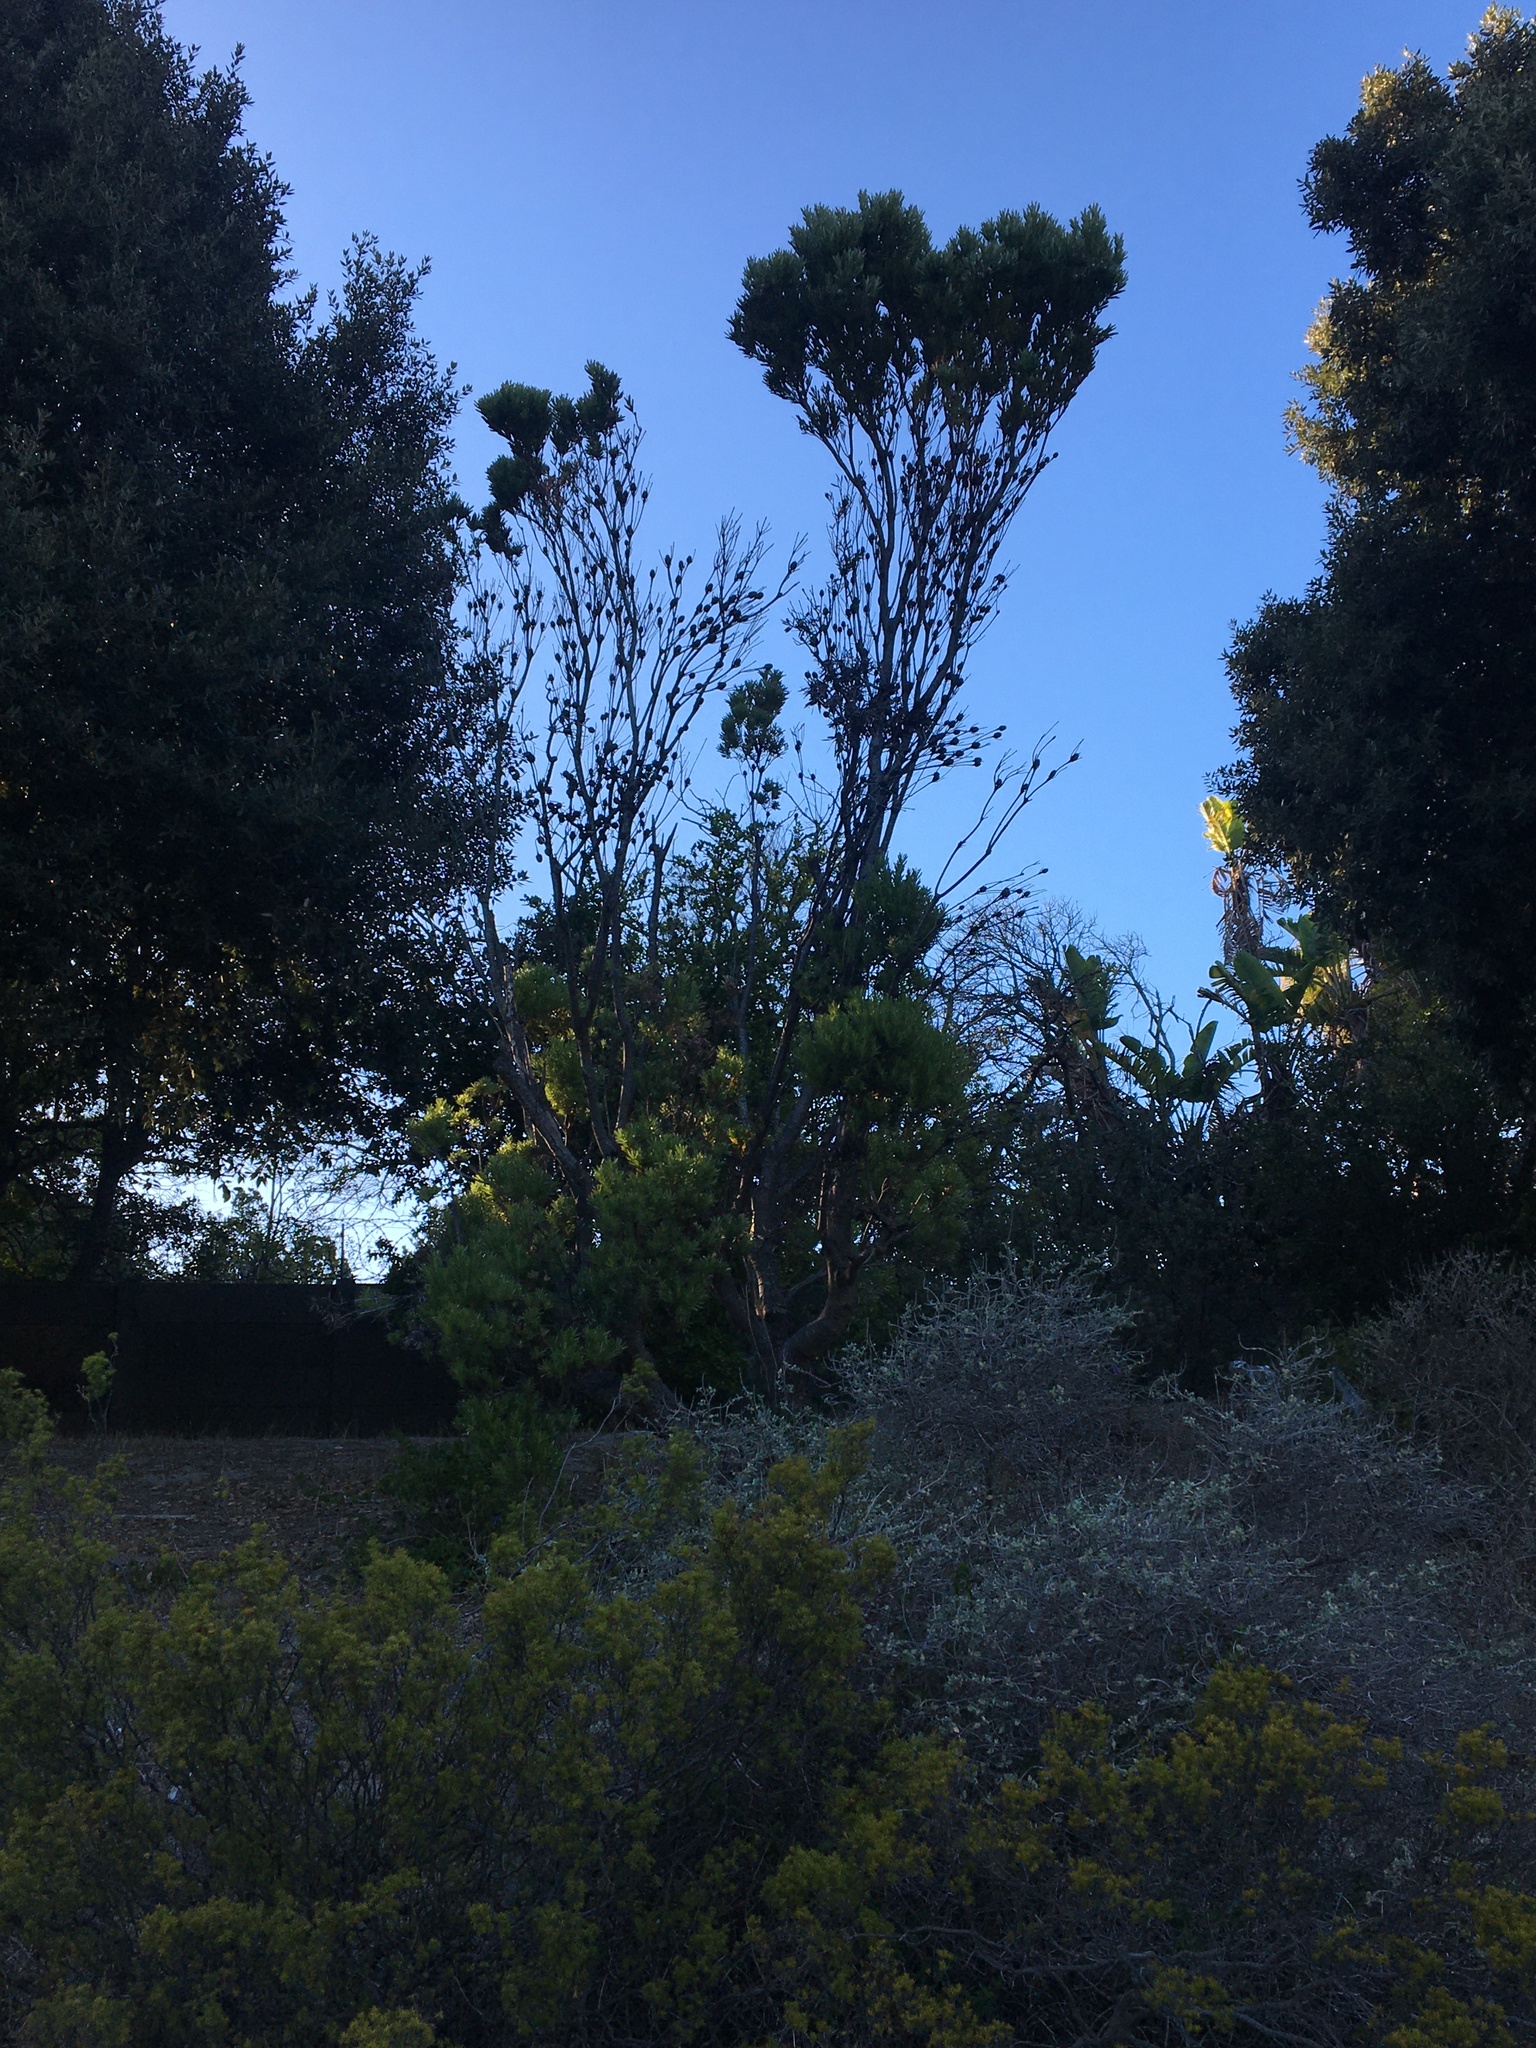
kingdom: Plantae
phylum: Tracheophyta
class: Magnoliopsida
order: Proteales
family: Proteaceae
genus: Leucadendron
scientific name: Leucadendron coniferum
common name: Dune conebush
